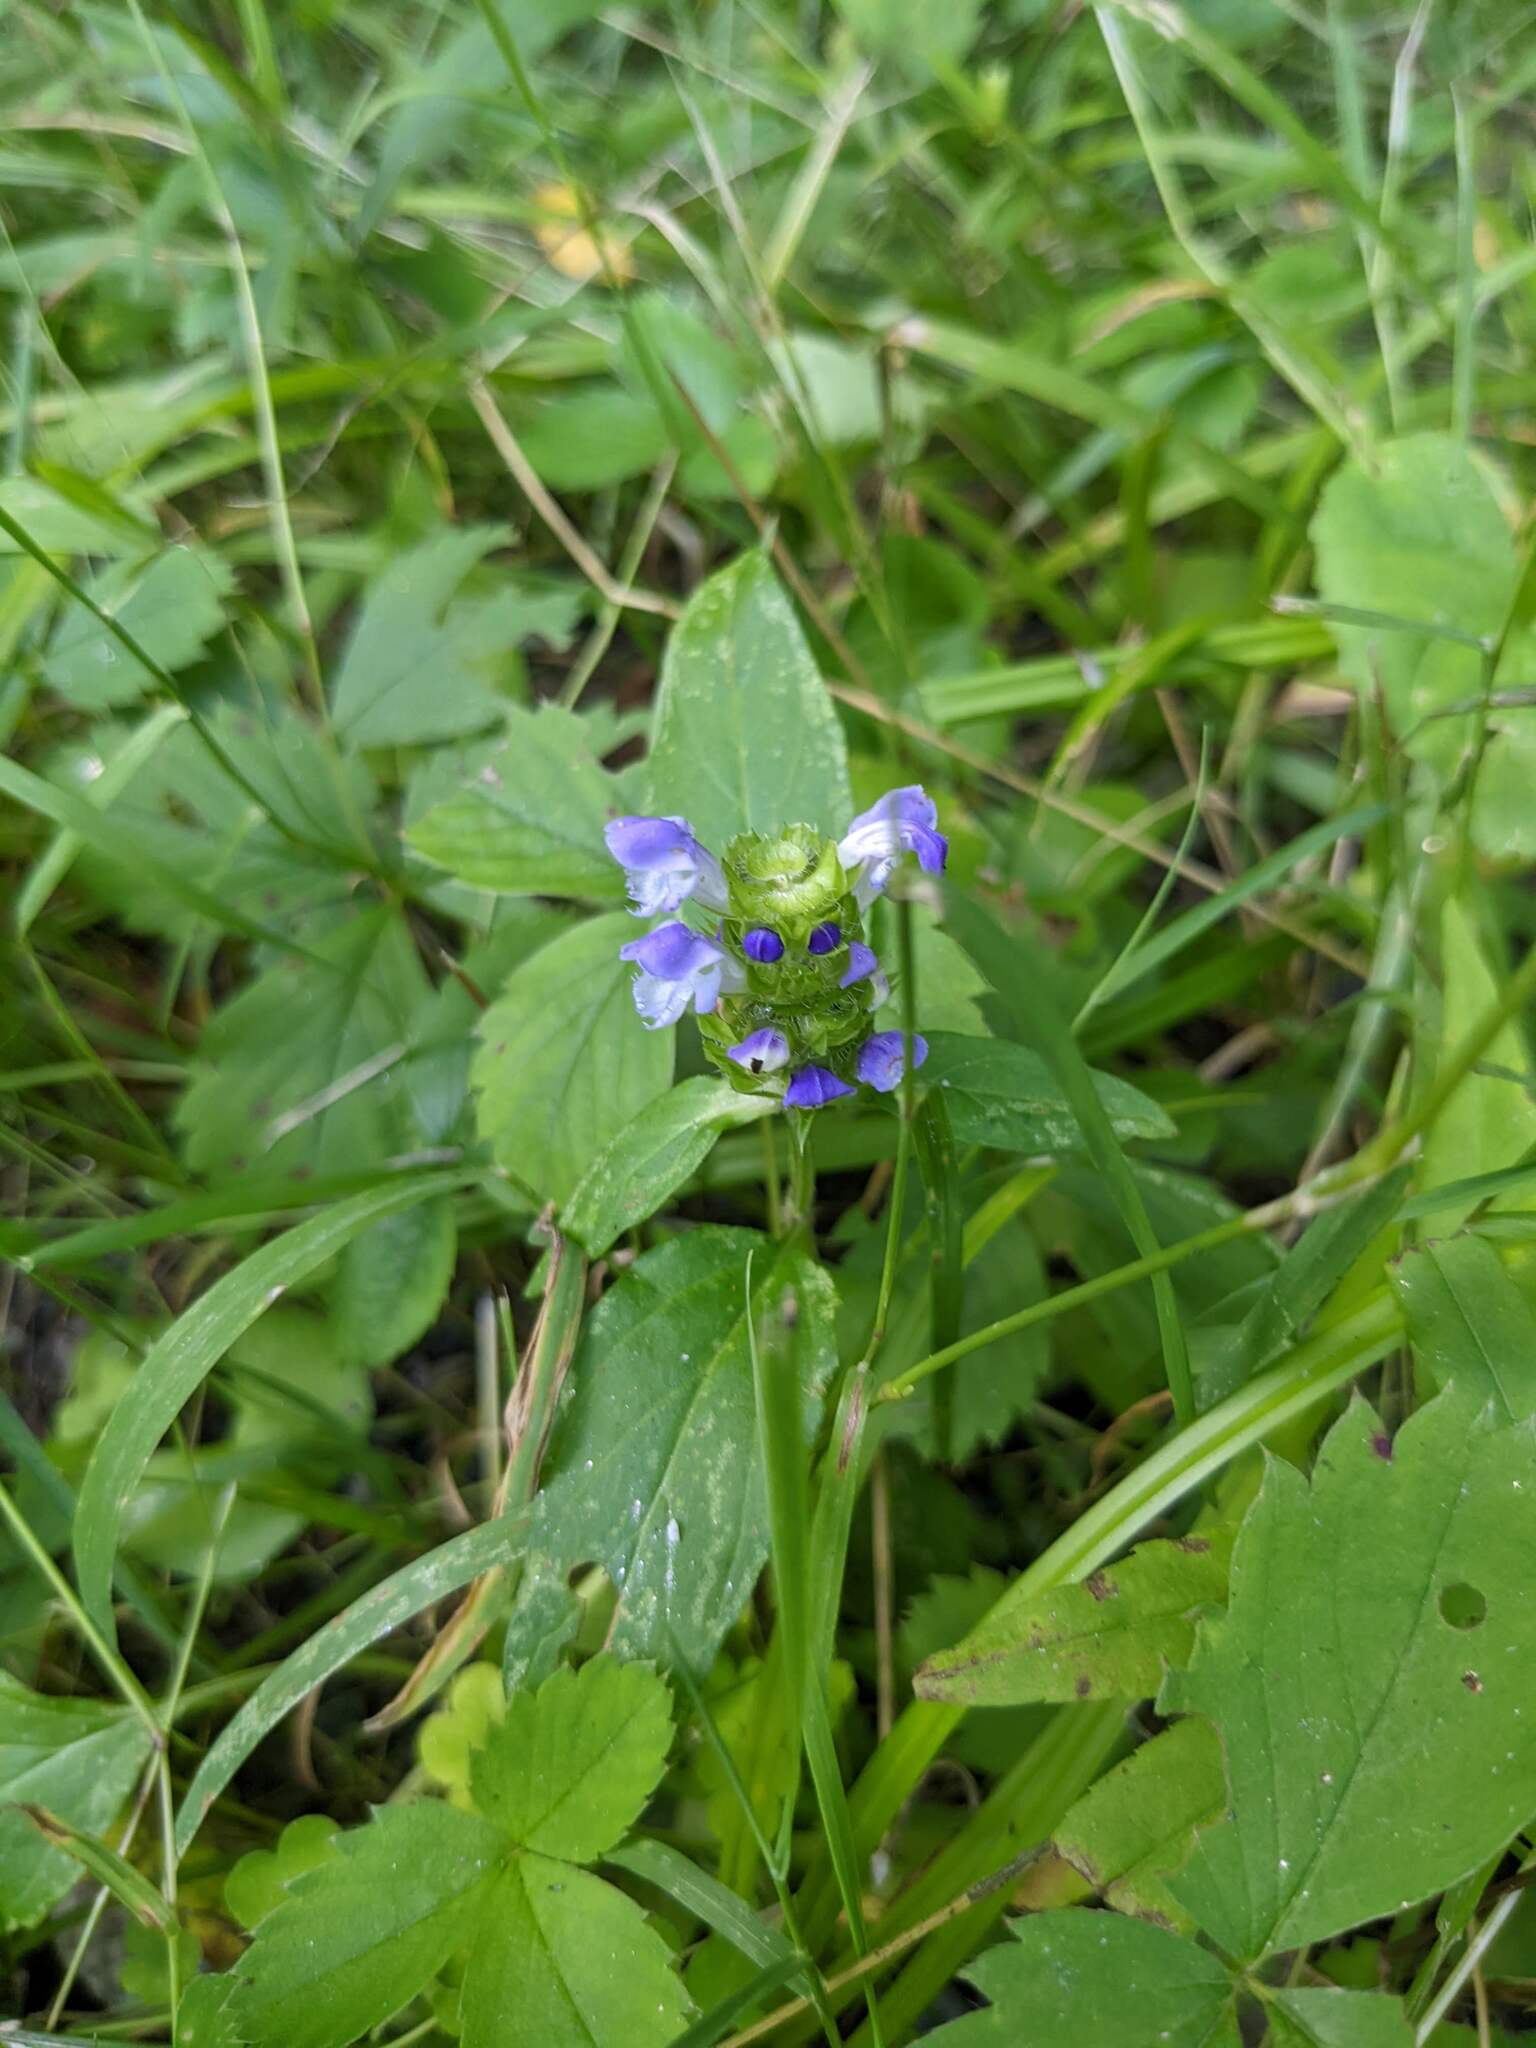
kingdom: Plantae
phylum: Tracheophyta
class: Magnoliopsida
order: Lamiales
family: Lamiaceae
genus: Prunella
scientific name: Prunella vulgaris
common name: Heal-all
